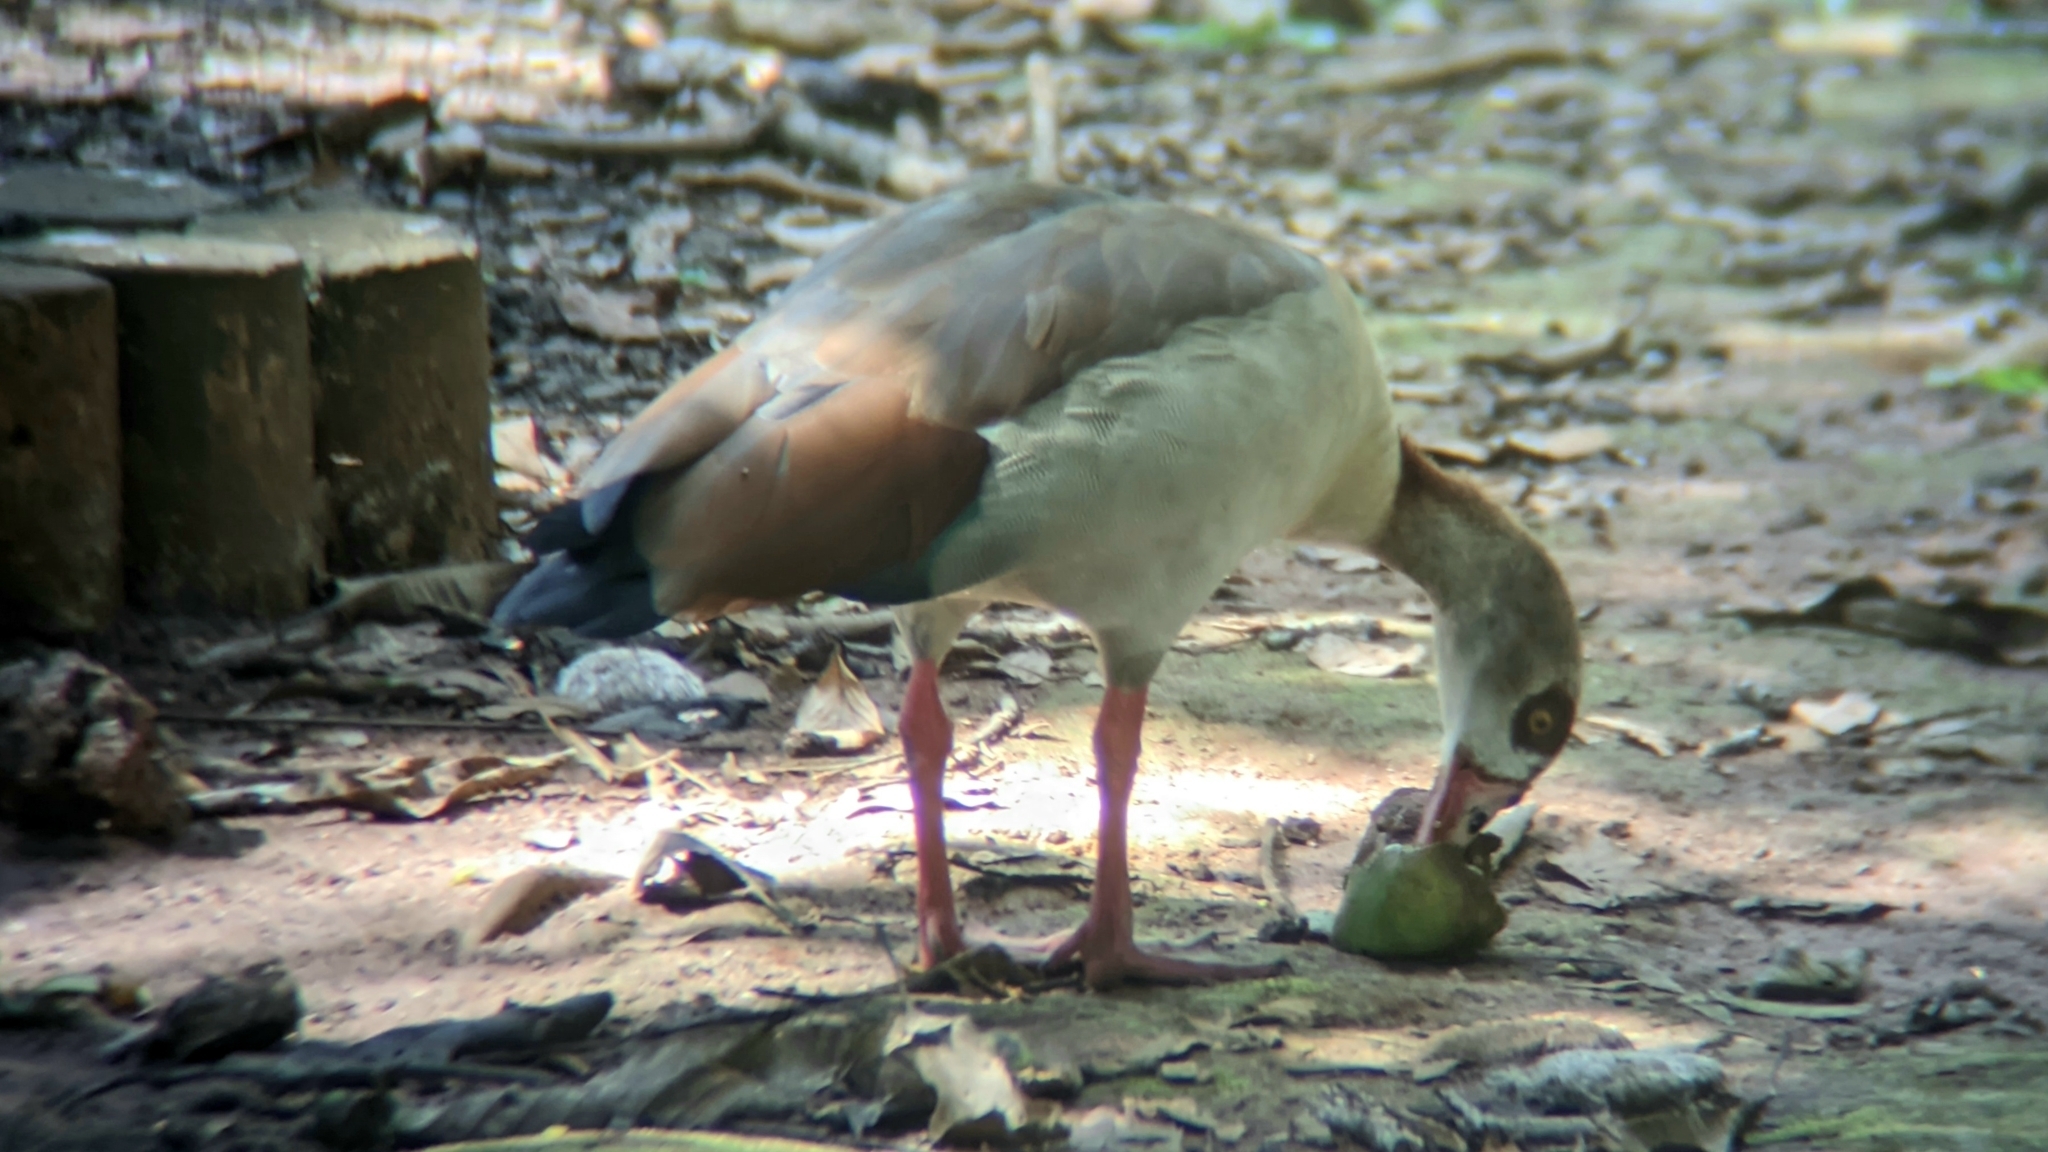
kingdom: Animalia
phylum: Chordata
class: Aves
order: Anseriformes
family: Anatidae
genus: Alopochen
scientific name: Alopochen aegyptiaca
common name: Egyptian goose
